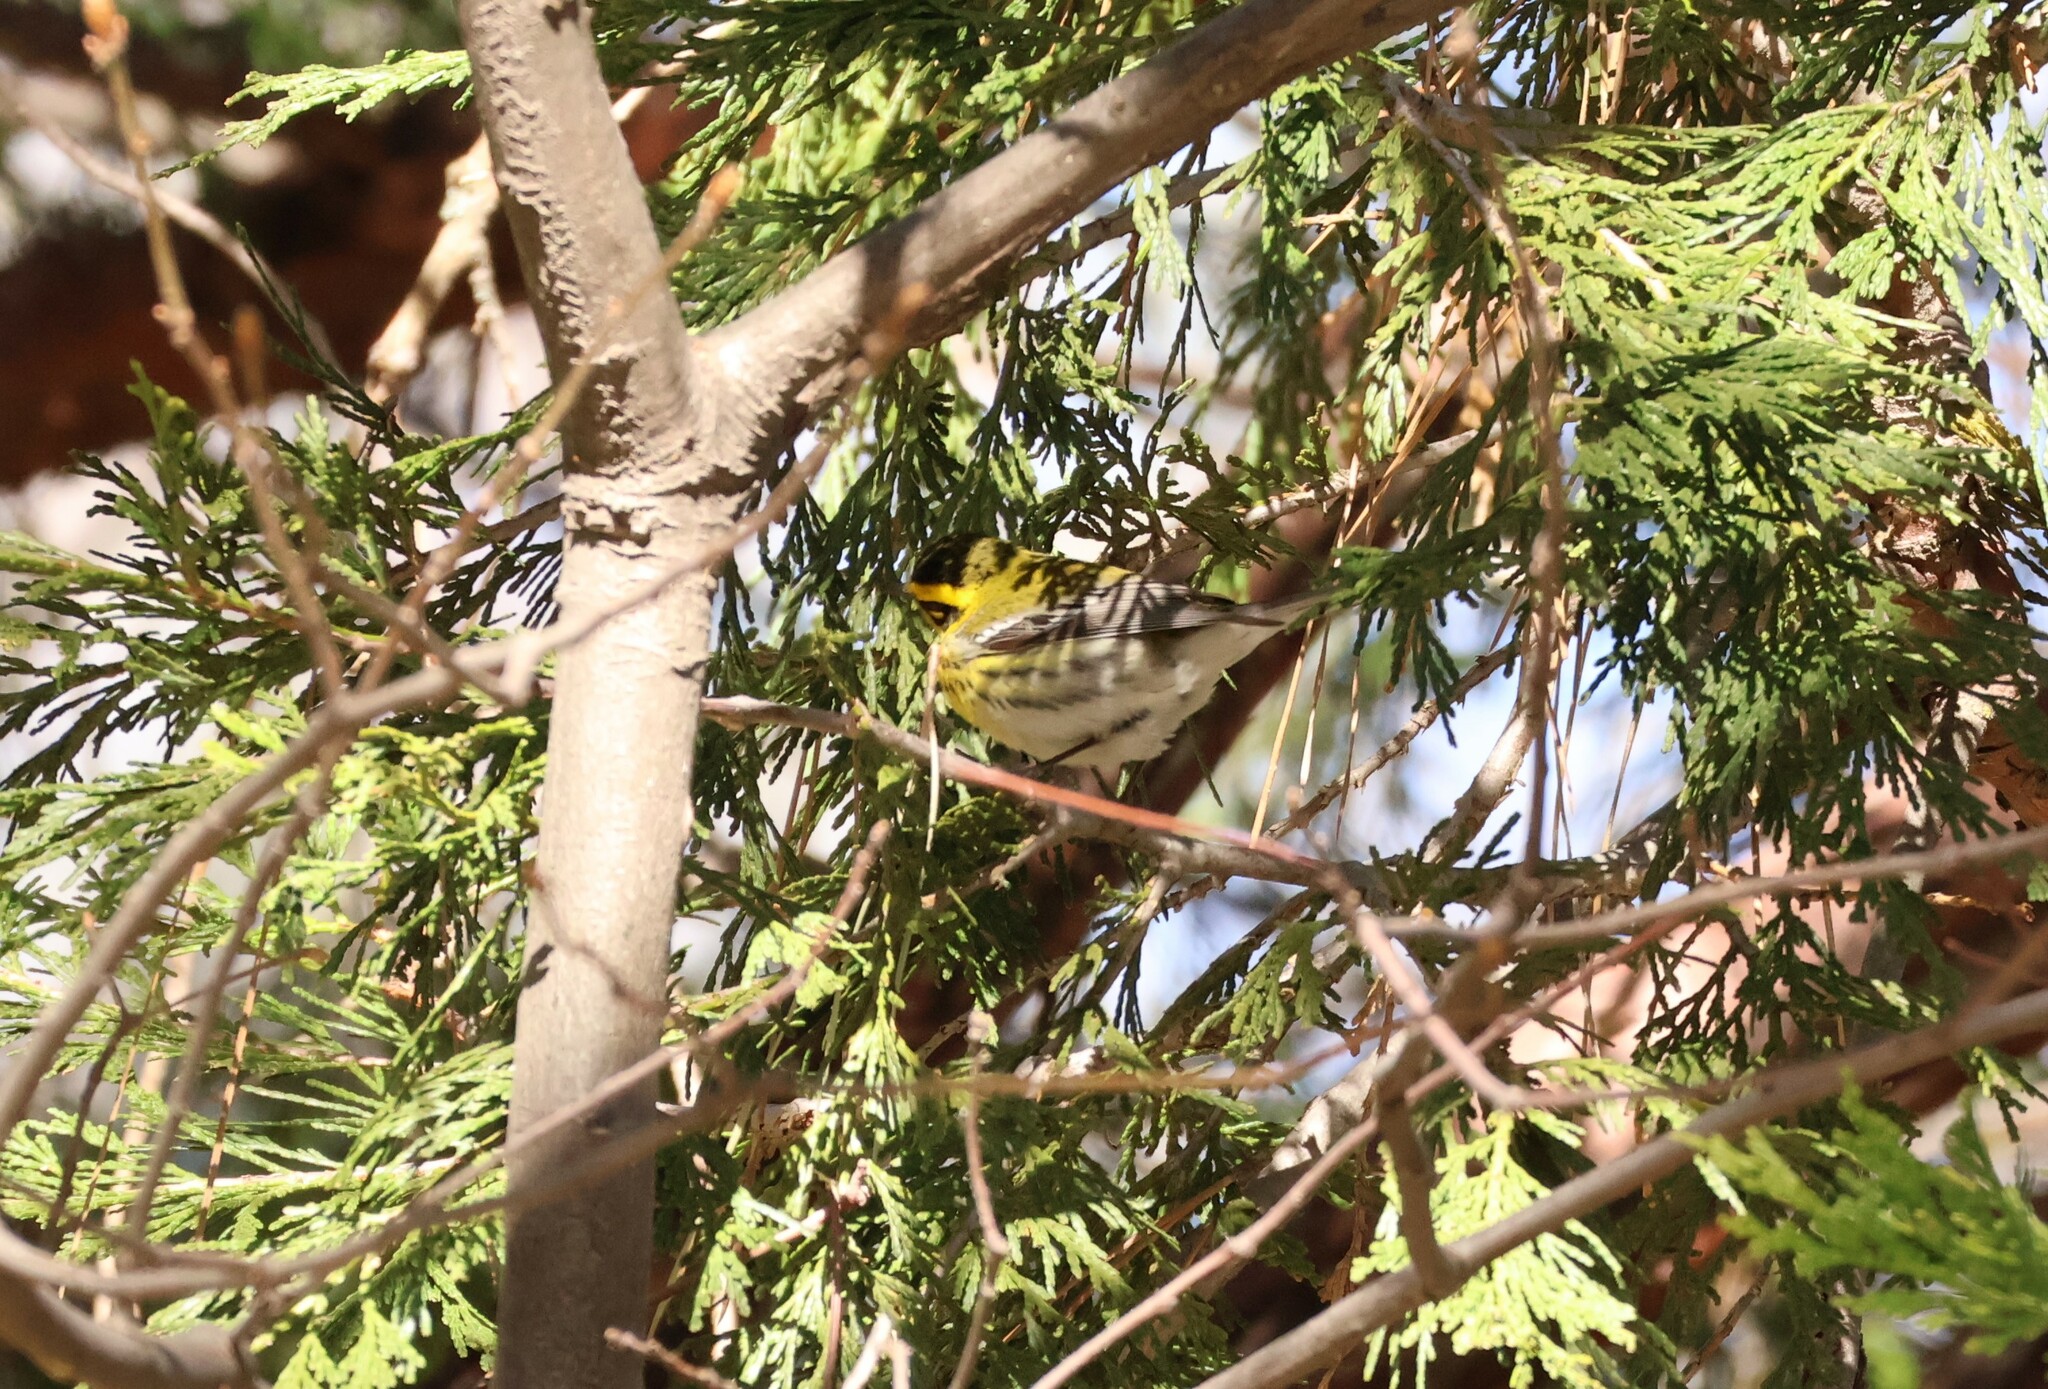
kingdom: Animalia
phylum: Chordata
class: Aves
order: Passeriformes
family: Parulidae
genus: Setophaga
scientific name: Setophaga townsendi
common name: Townsend's warbler
